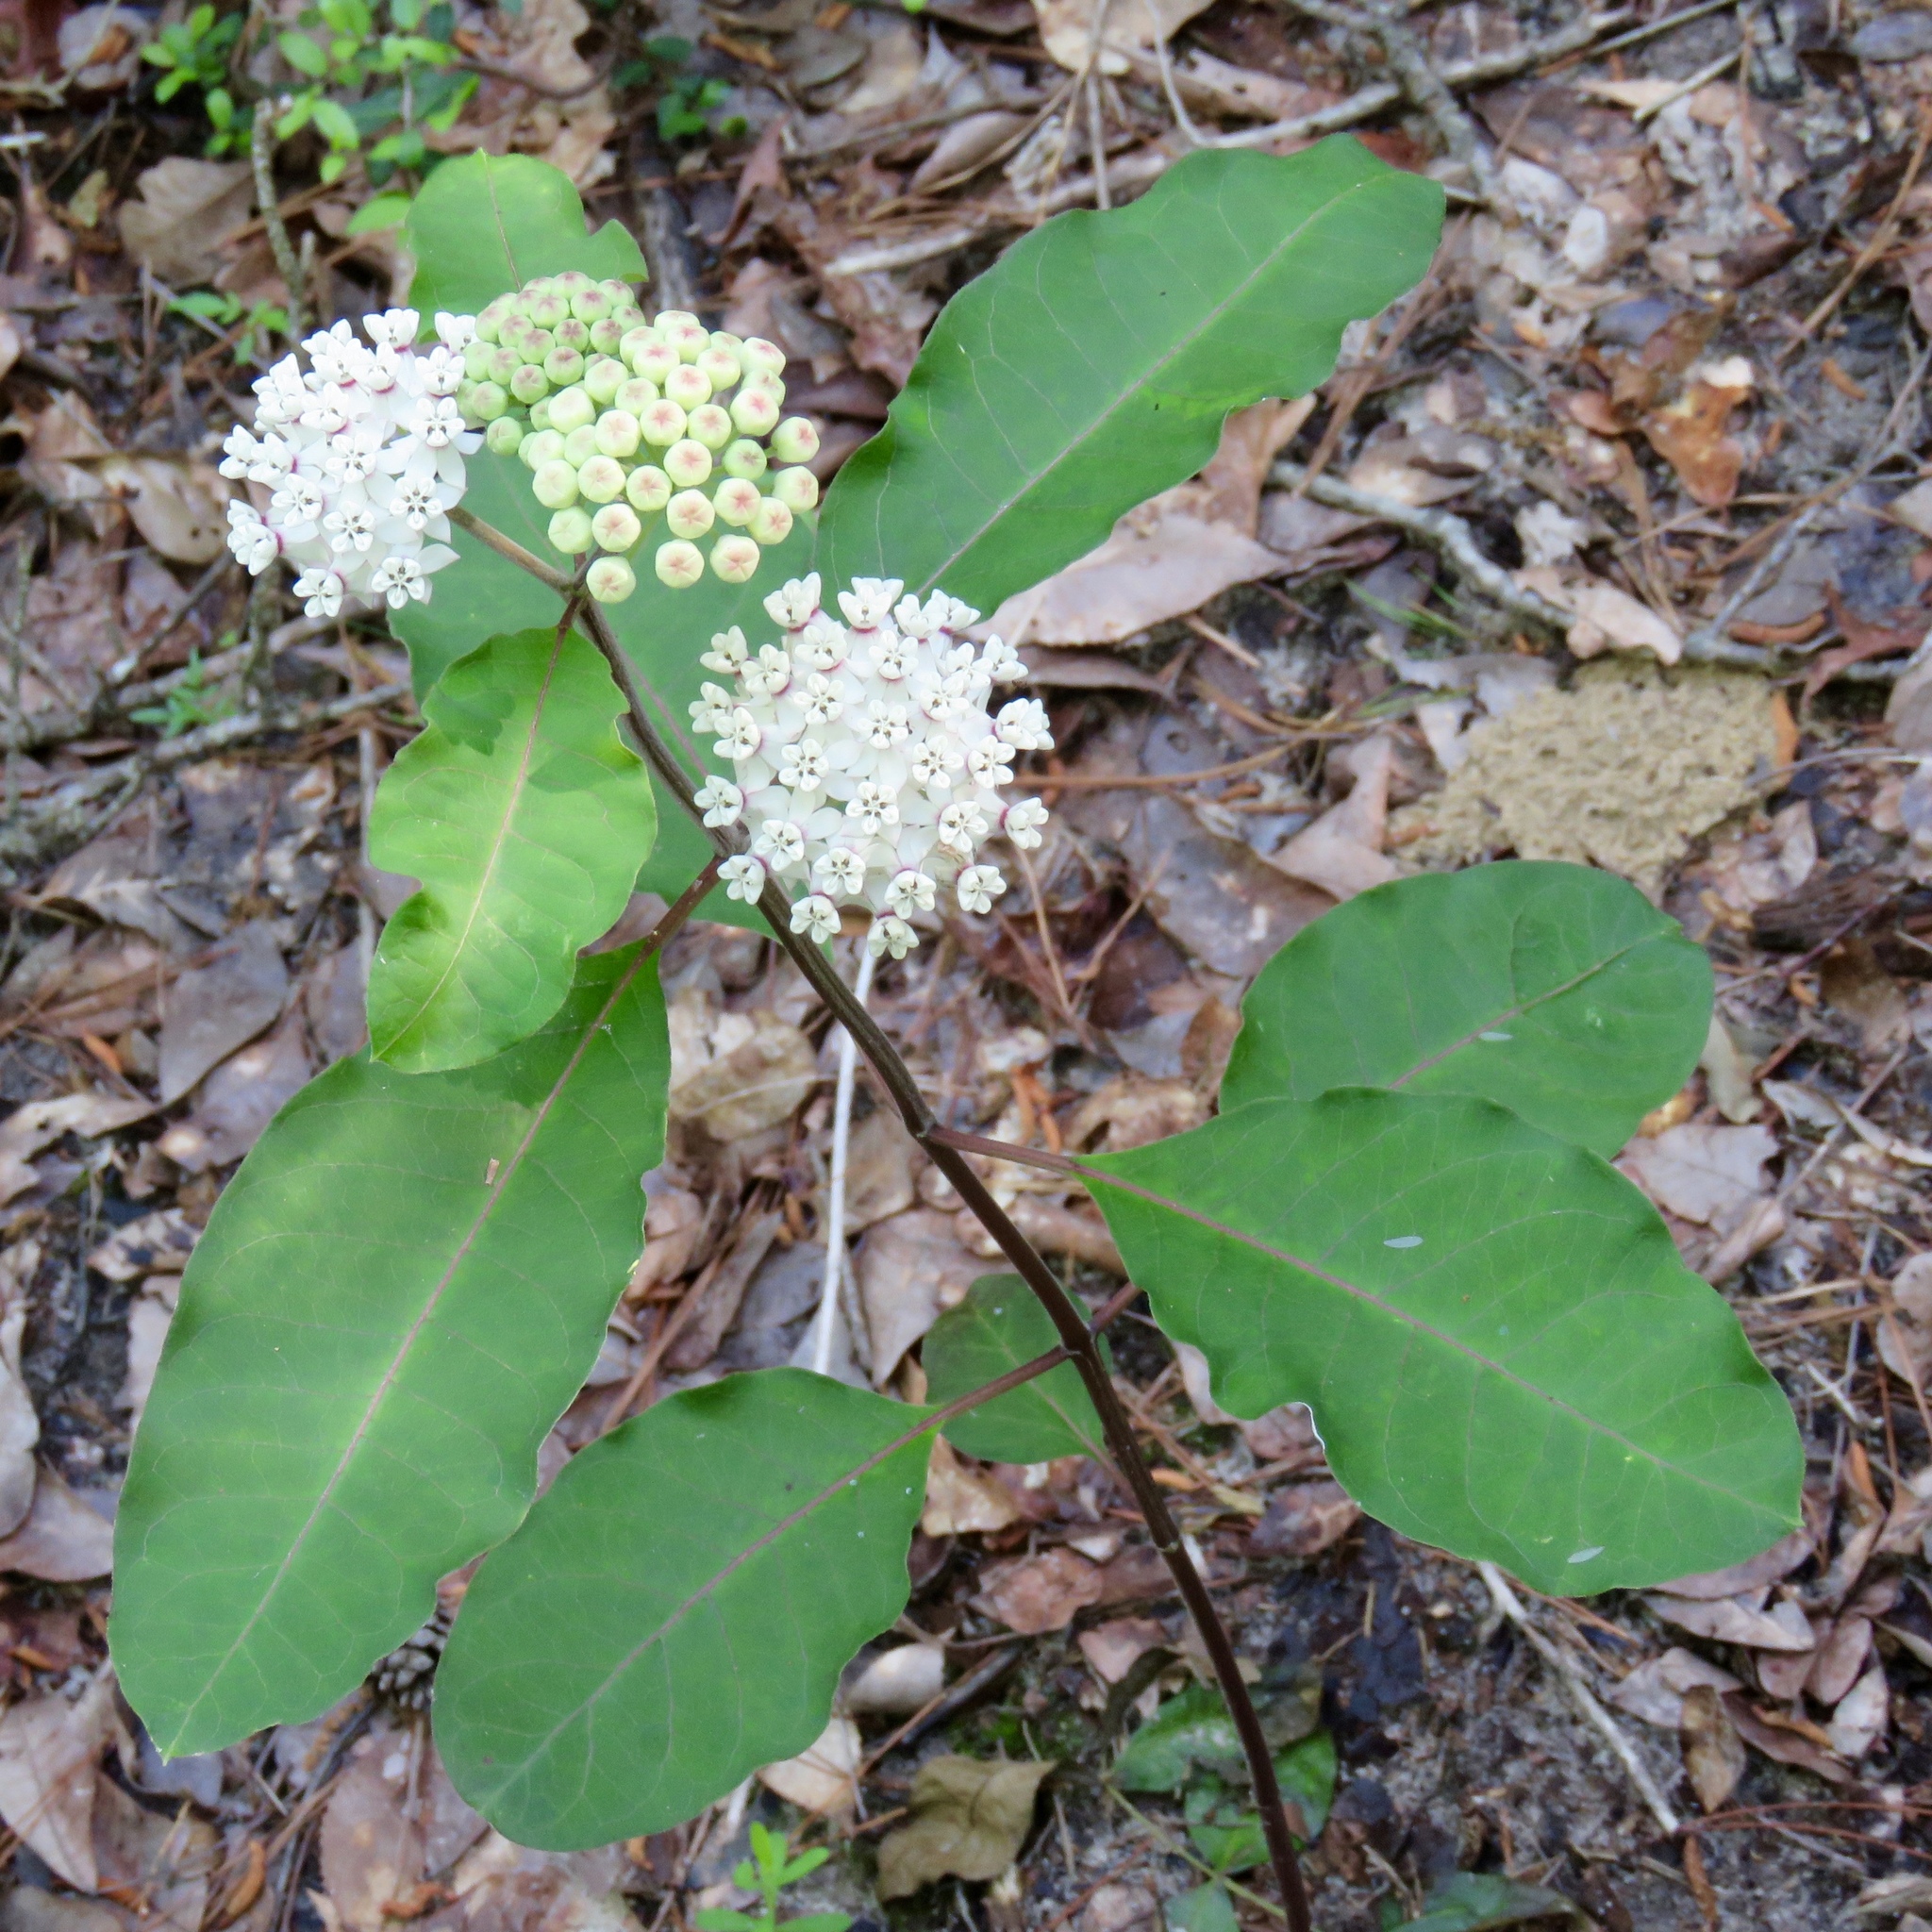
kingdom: Plantae
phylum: Tracheophyta
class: Magnoliopsida
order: Gentianales
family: Apocynaceae
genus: Asclepias
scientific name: Asclepias variegata
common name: Variegated milkweed
